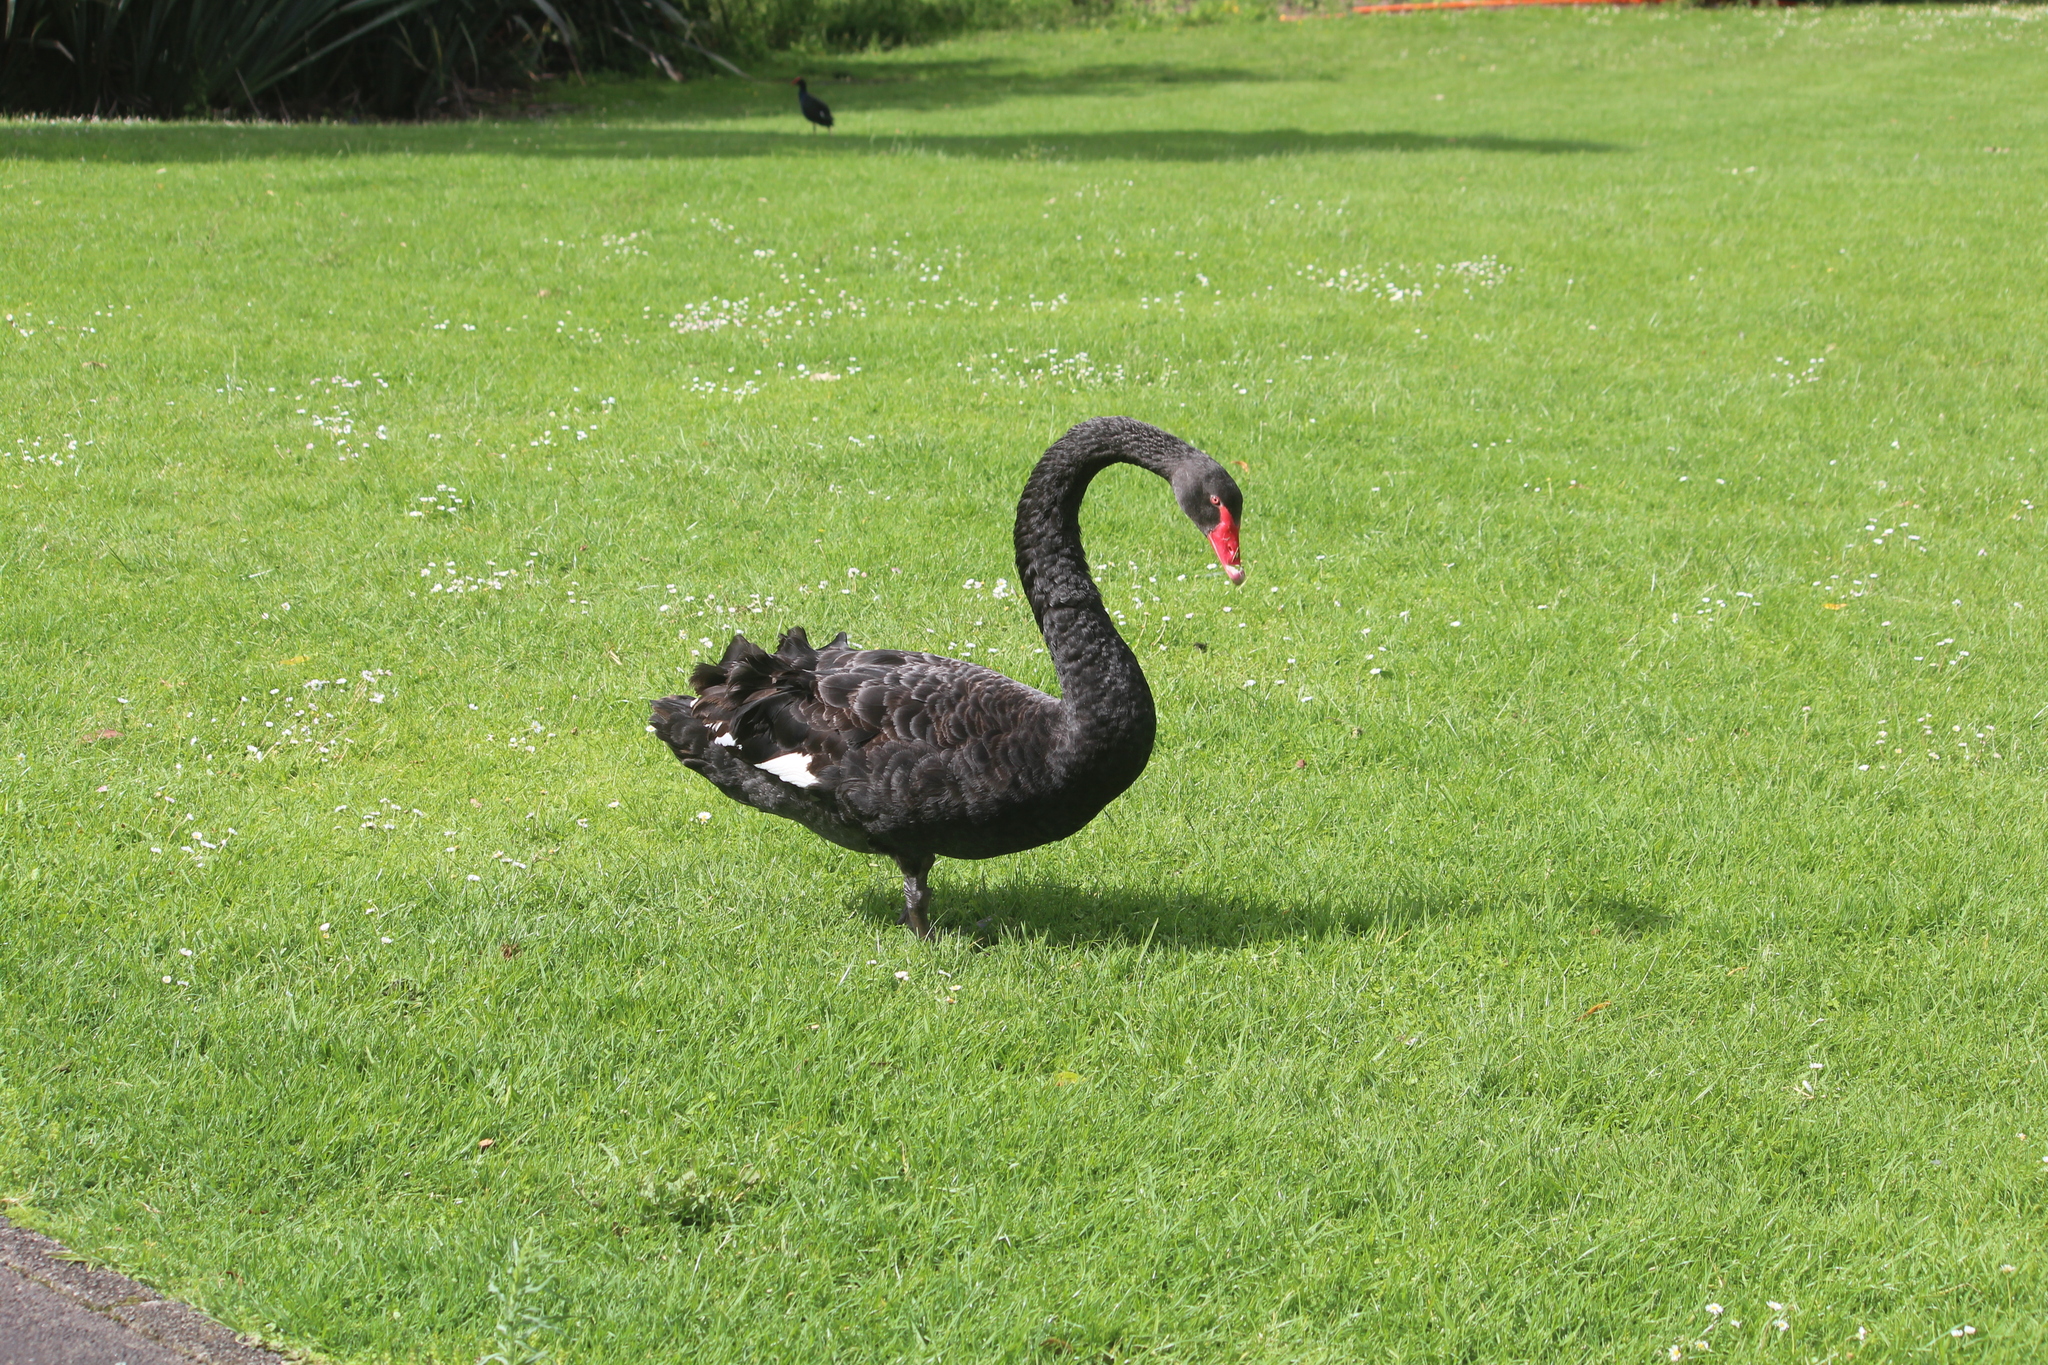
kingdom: Animalia
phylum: Chordata
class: Aves
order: Anseriformes
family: Anatidae
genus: Cygnus
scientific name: Cygnus atratus
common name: Black swan
